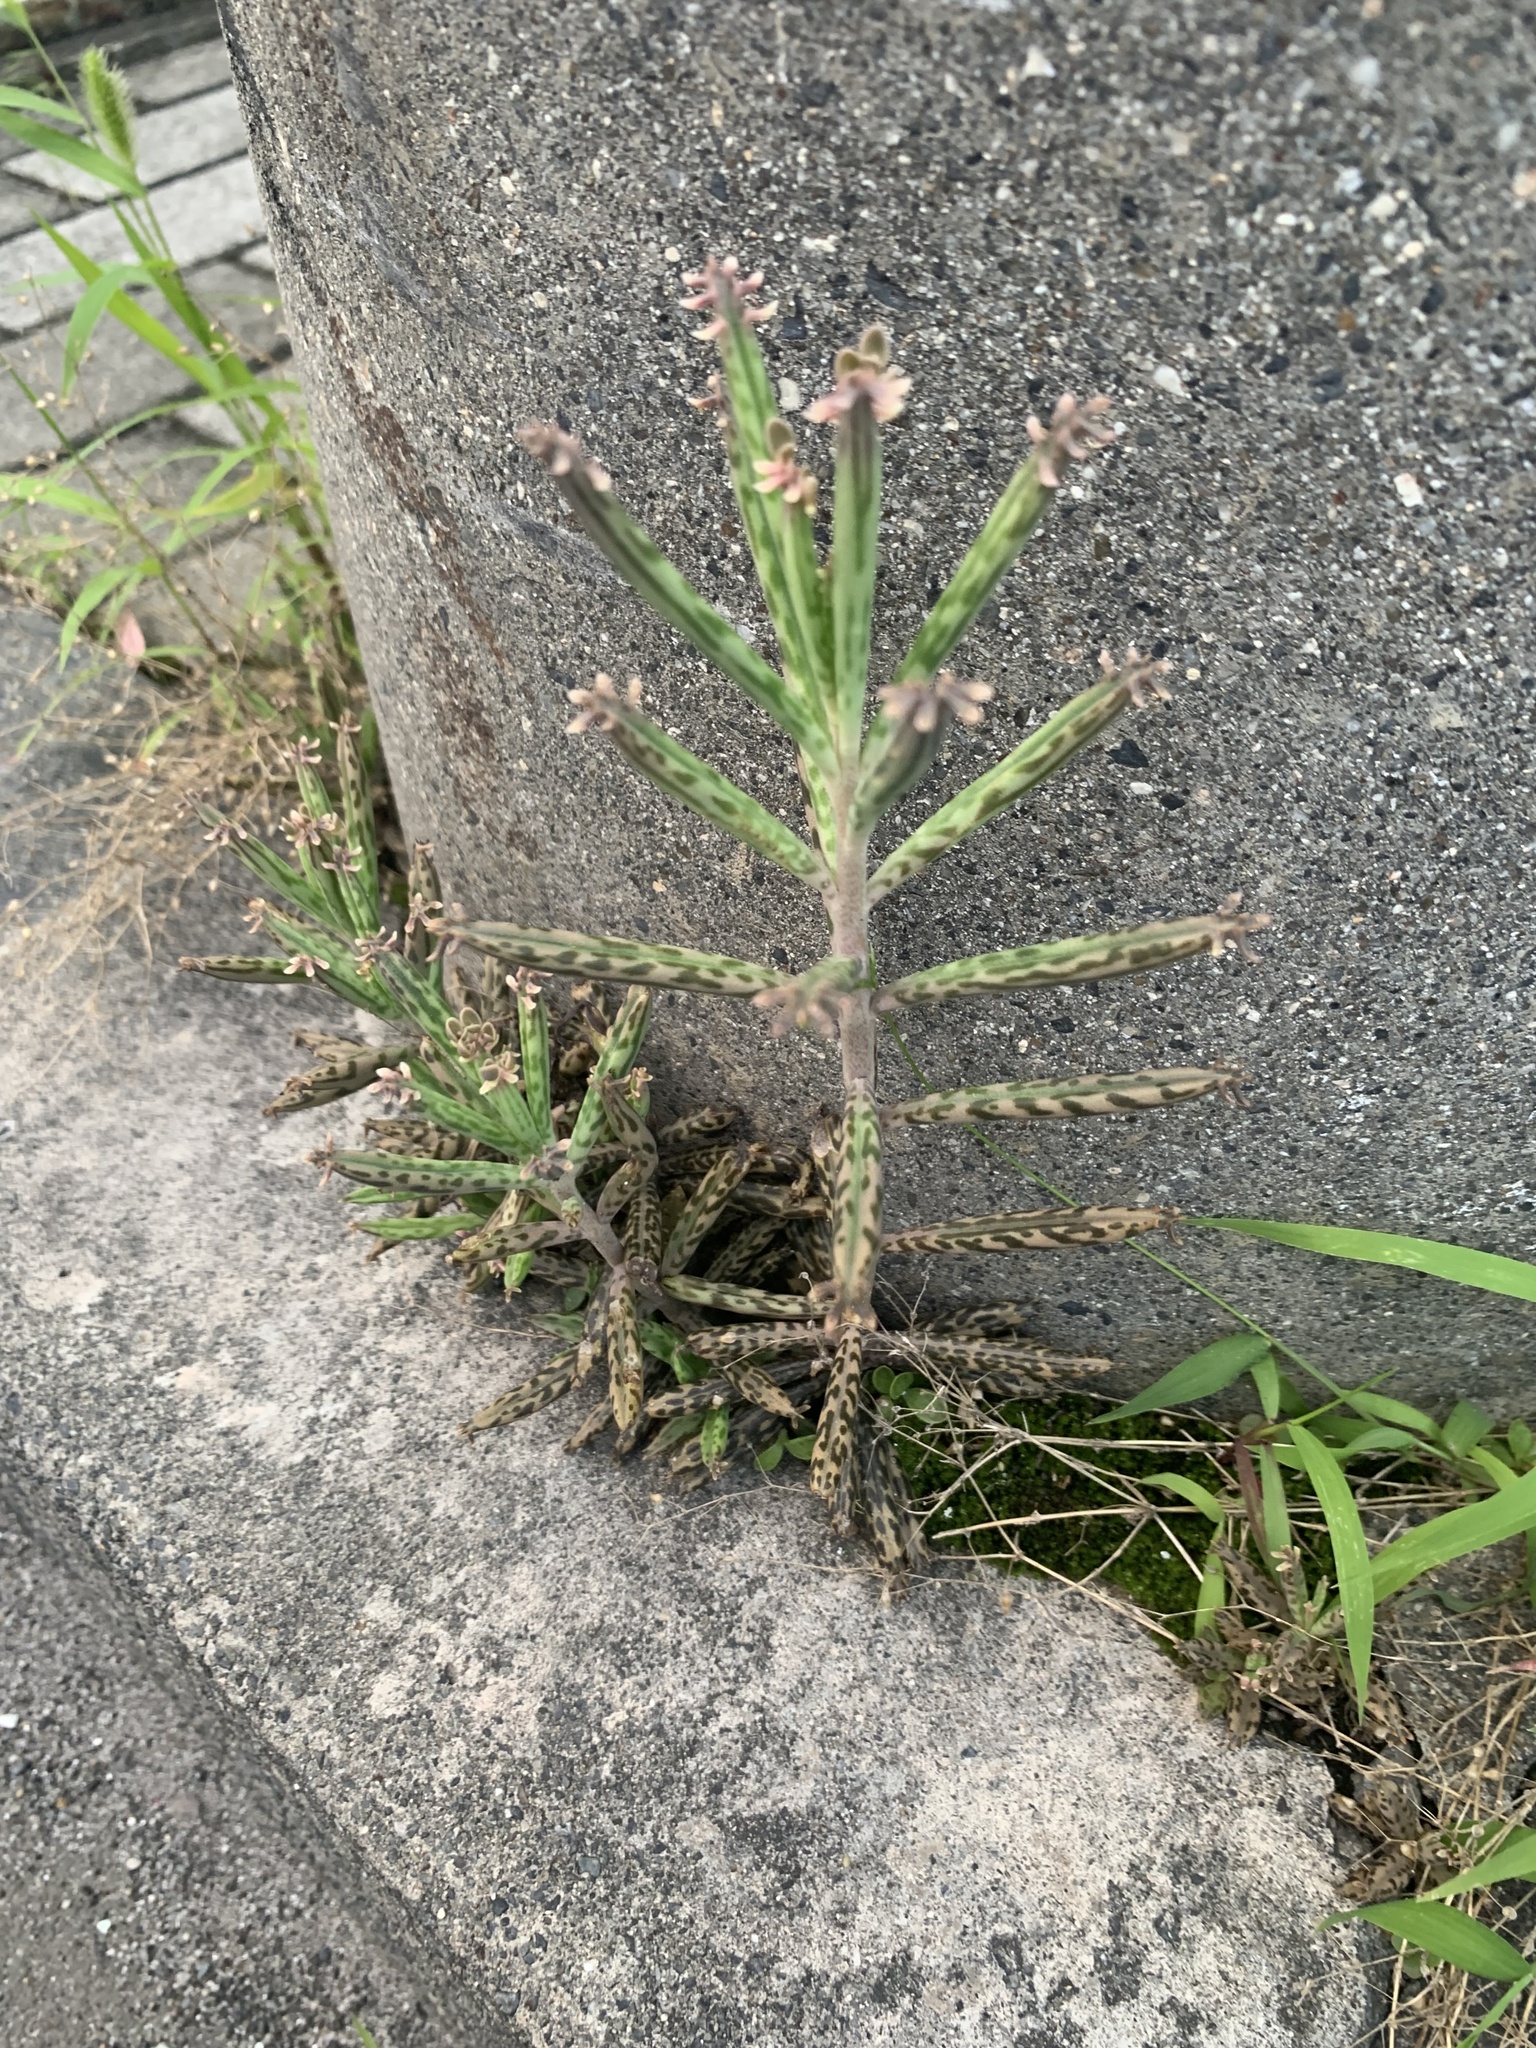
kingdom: Plantae
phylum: Tracheophyta
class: Magnoliopsida
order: Saxifragales
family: Crassulaceae
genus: Kalanchoe
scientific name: Kalanchoe delagoensis
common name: Chandelier plant
